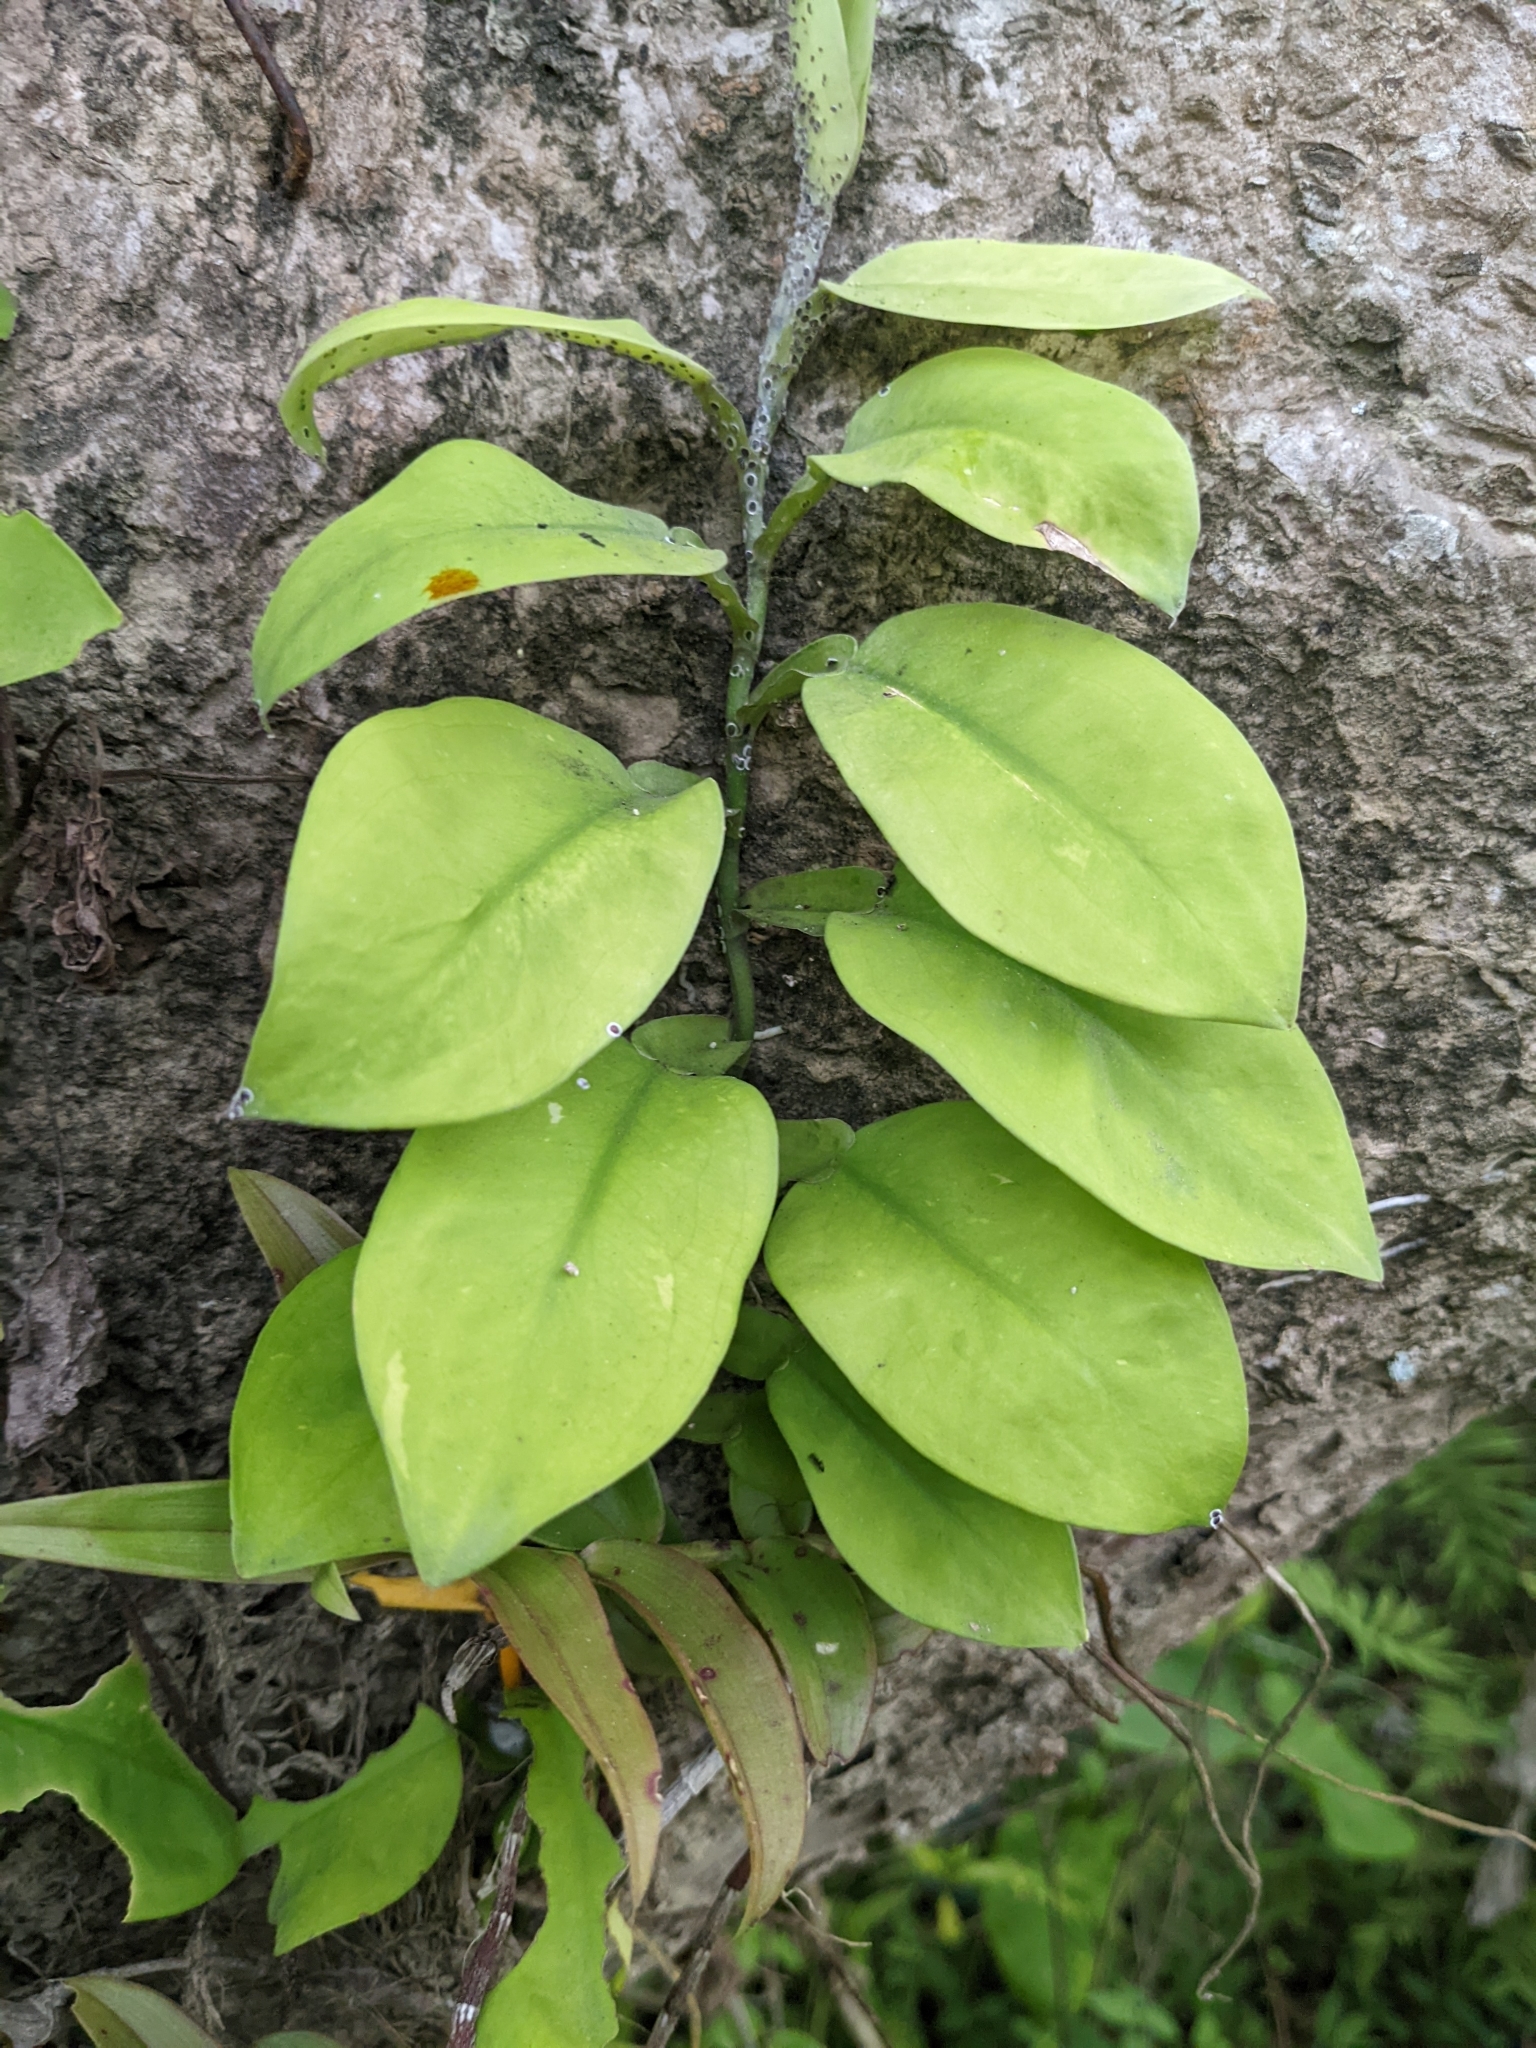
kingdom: Plantae
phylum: Tracheophyta
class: Liliopsida
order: Alismatales
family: Araceae
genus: Pothos
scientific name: Pothos chinensis
